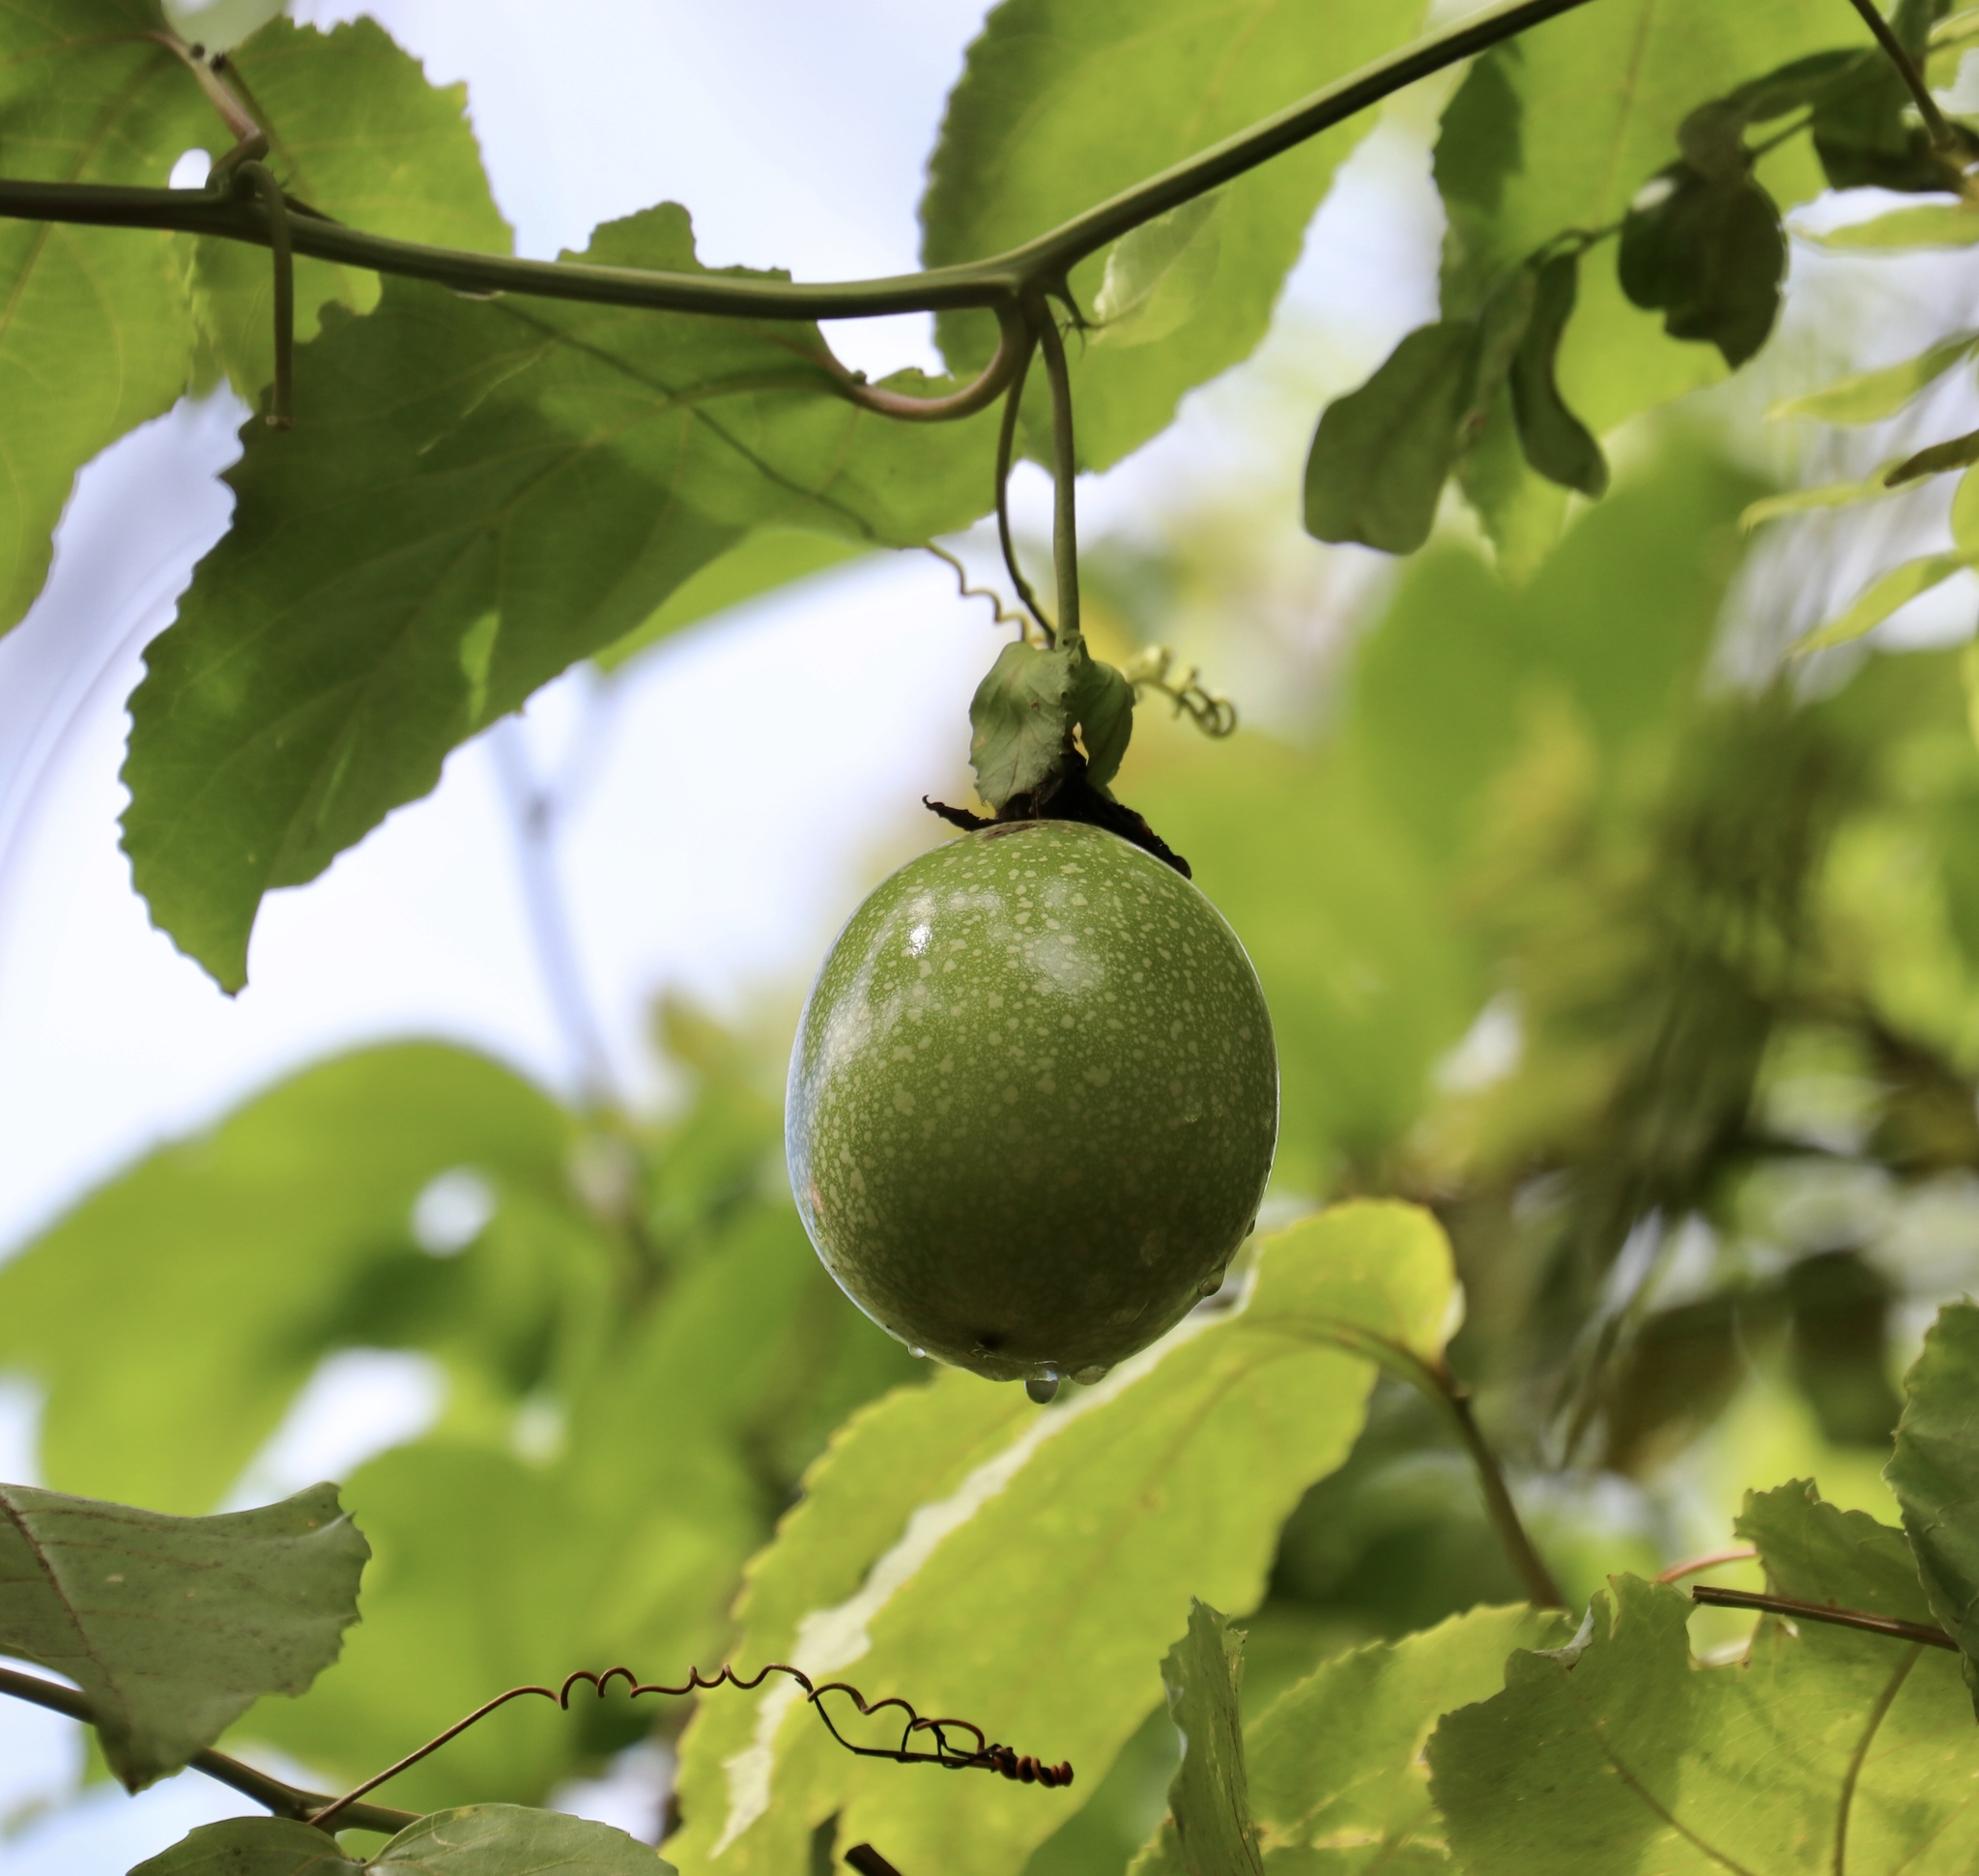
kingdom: Plantae
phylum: Tracheophyta
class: Magnoliopsida
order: Malpighiales
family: Passifloraceae
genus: Passiflora
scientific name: Passiflora edulis
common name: Purple granadilla
